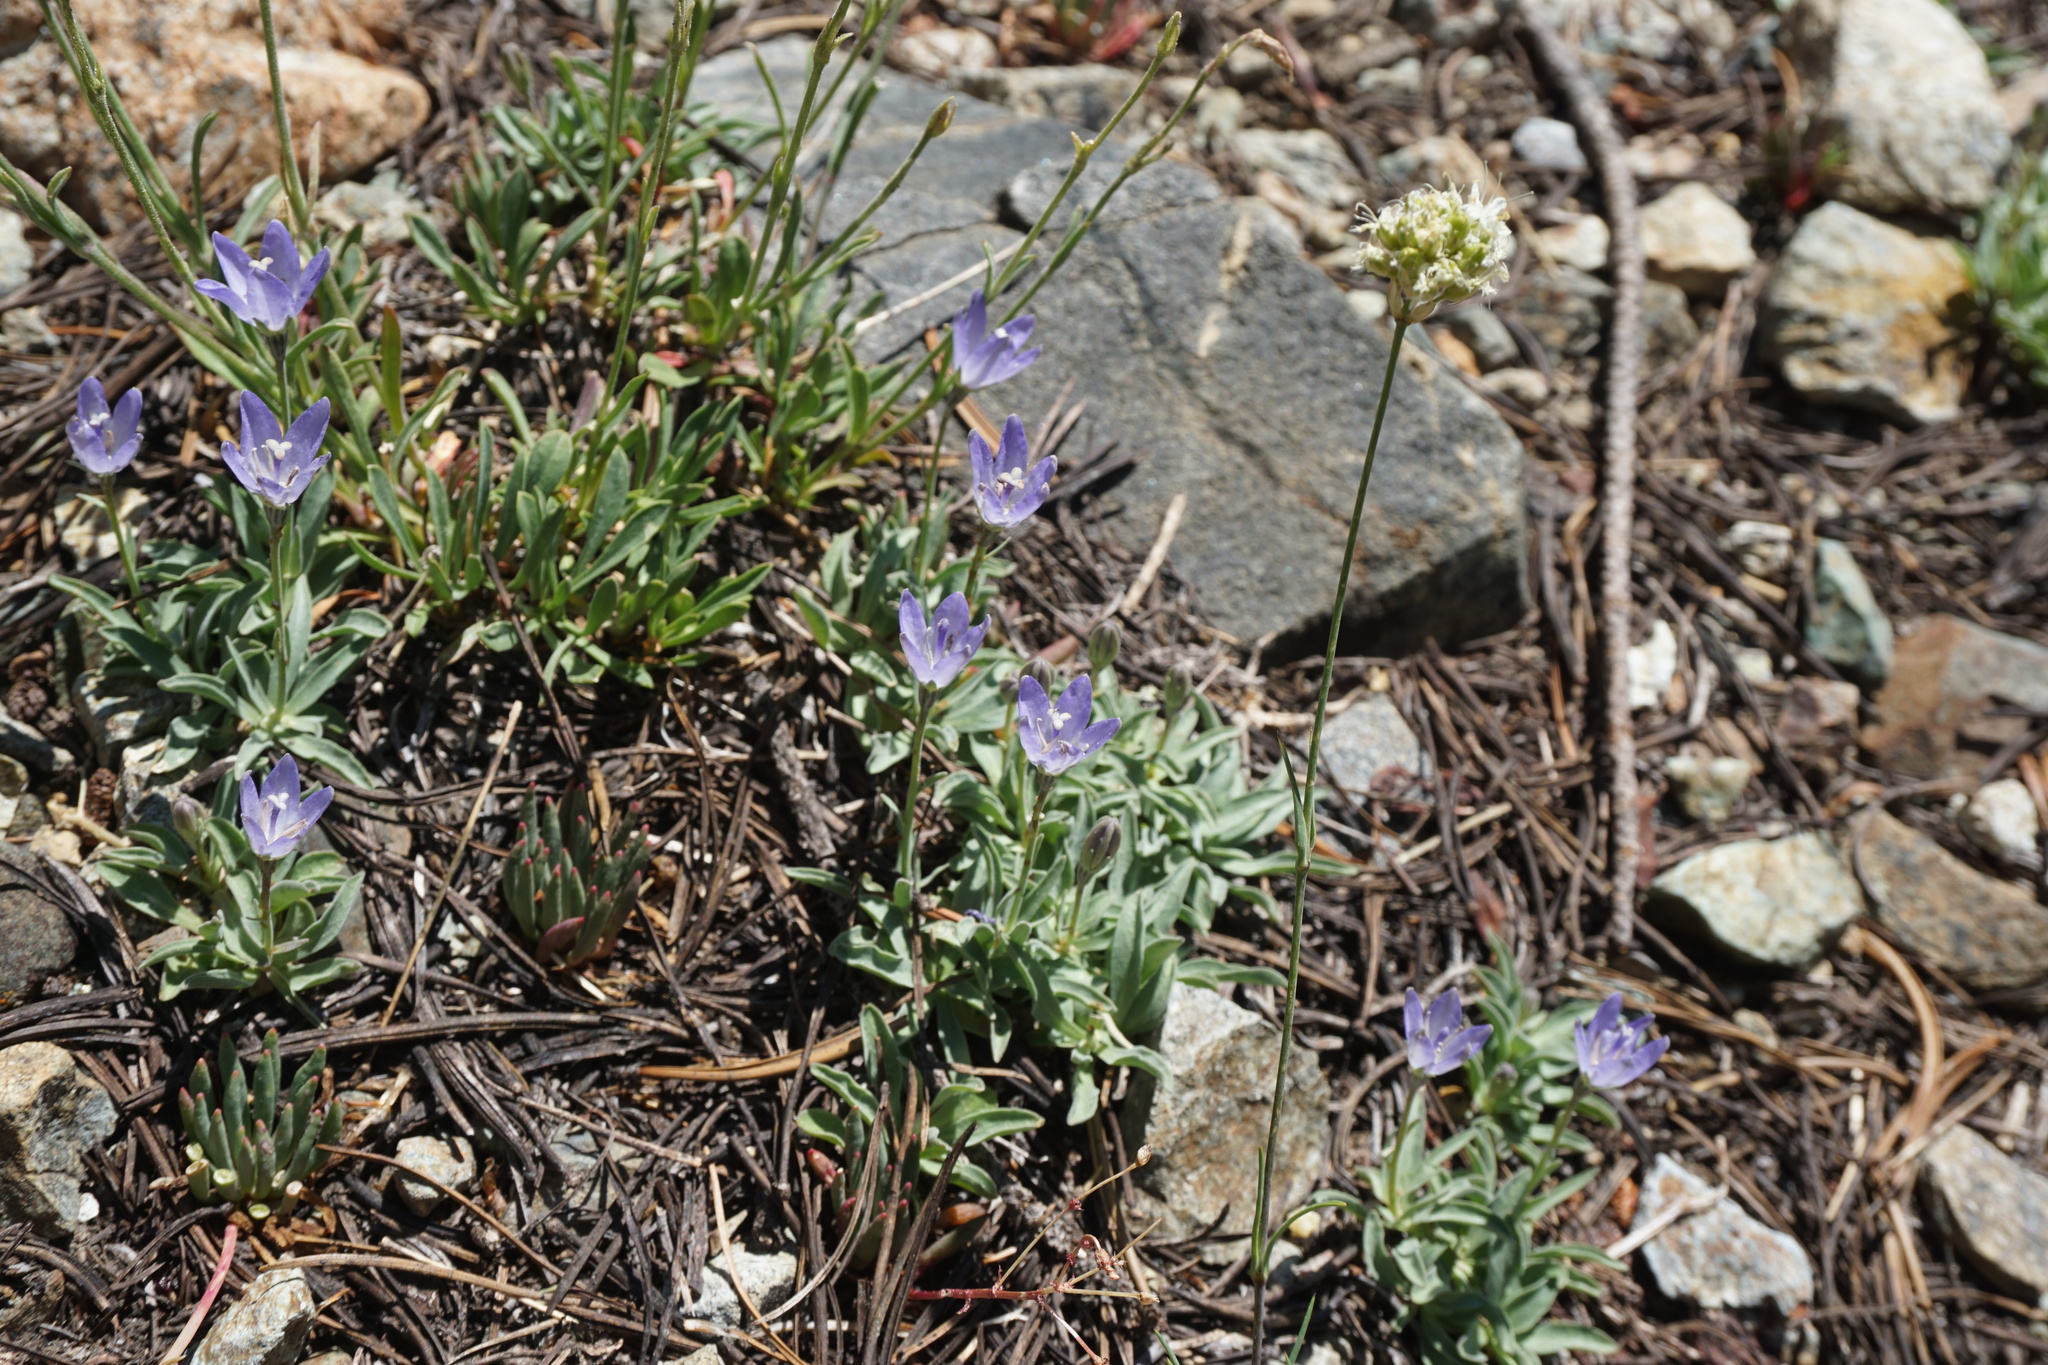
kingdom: Plantae
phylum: Tracheophyta
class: Magnoliopsida
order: Asterales
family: Campanulaceae
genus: Campanula
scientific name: Campanula scabrella
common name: Downy alpine bellflower
